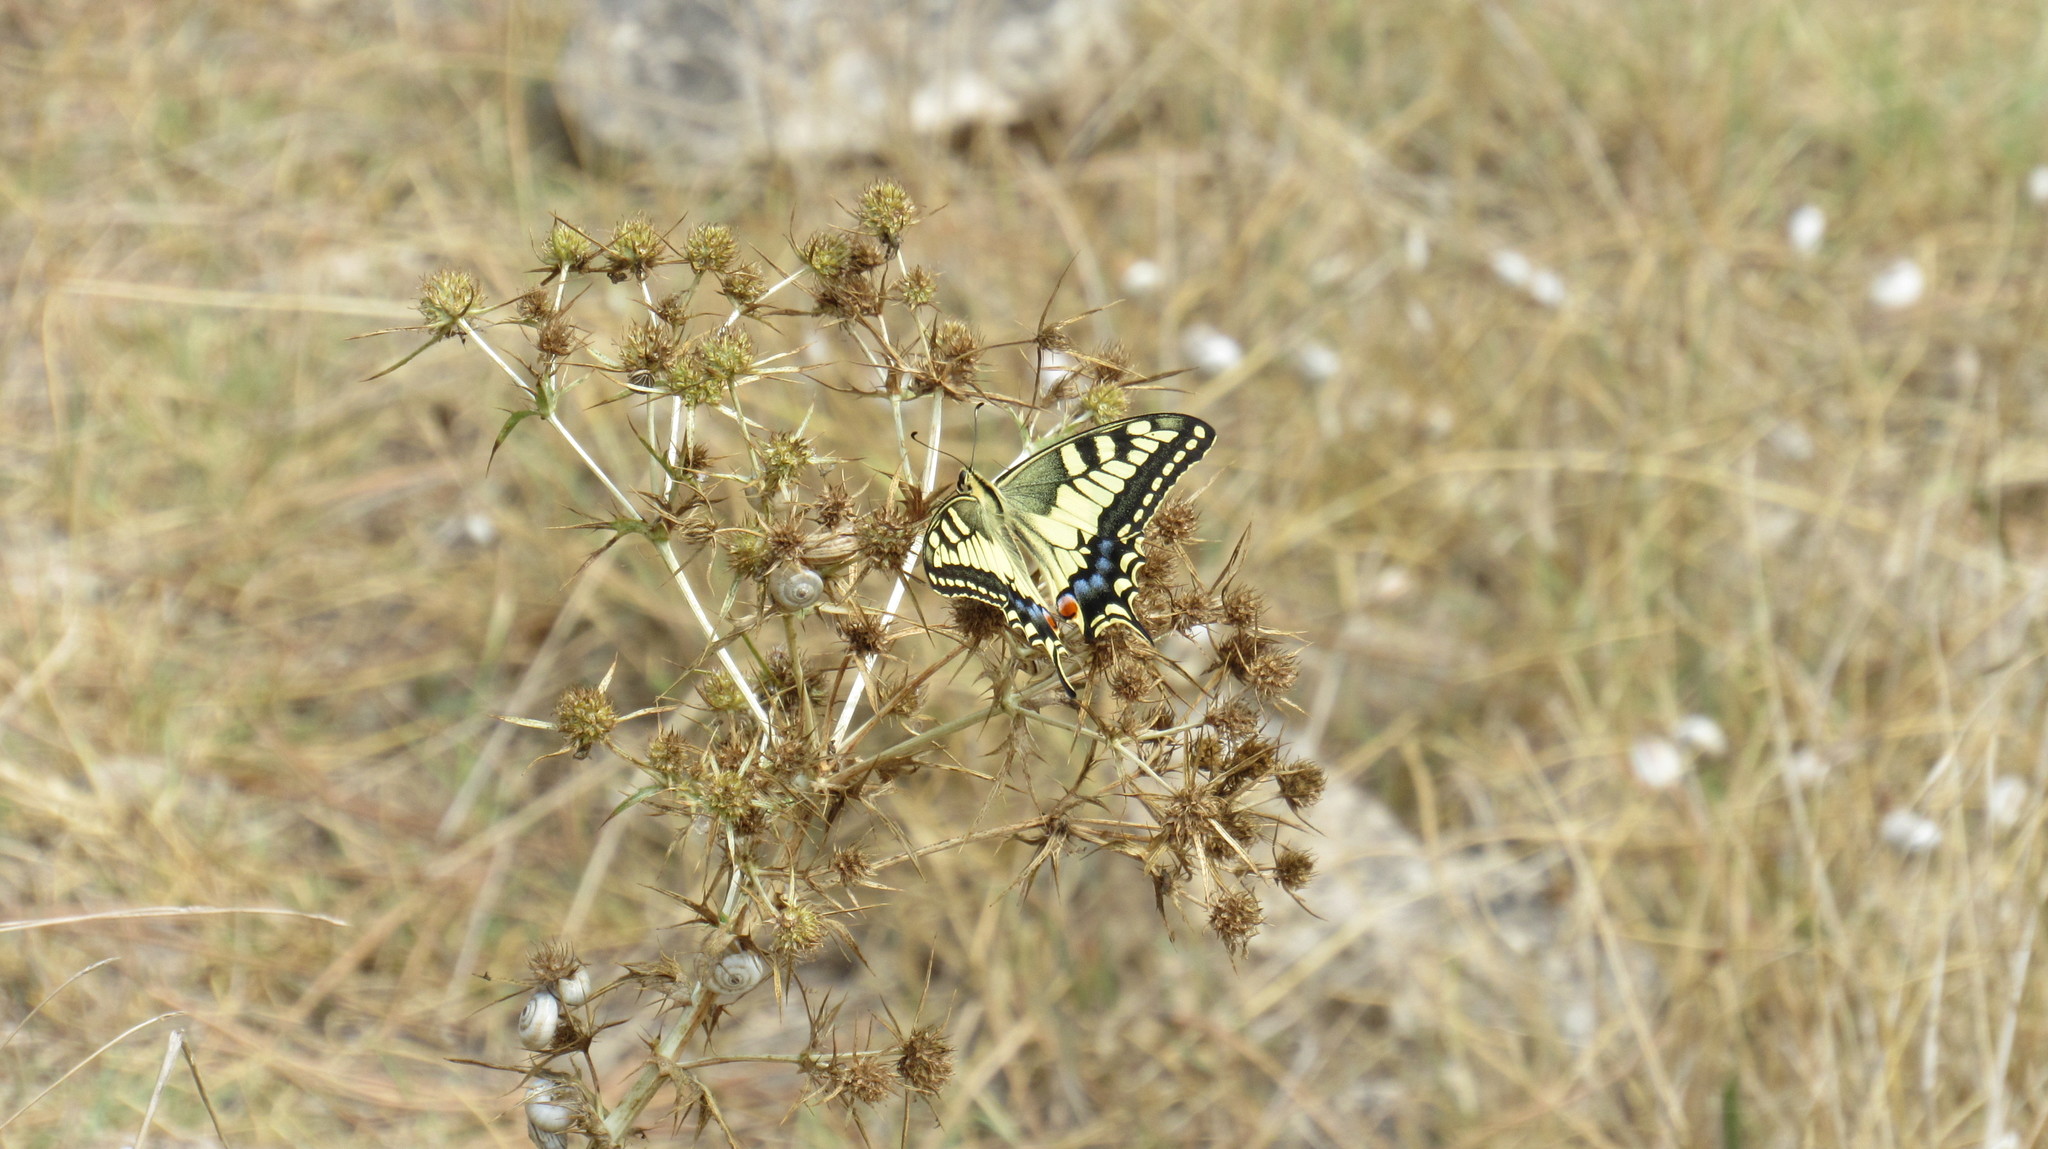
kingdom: Animalia
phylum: Arthropoda
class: Insecta
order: Lepidoptera
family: Papilionidae
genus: Papilio
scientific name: Papilio machaon
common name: Swallowtail
